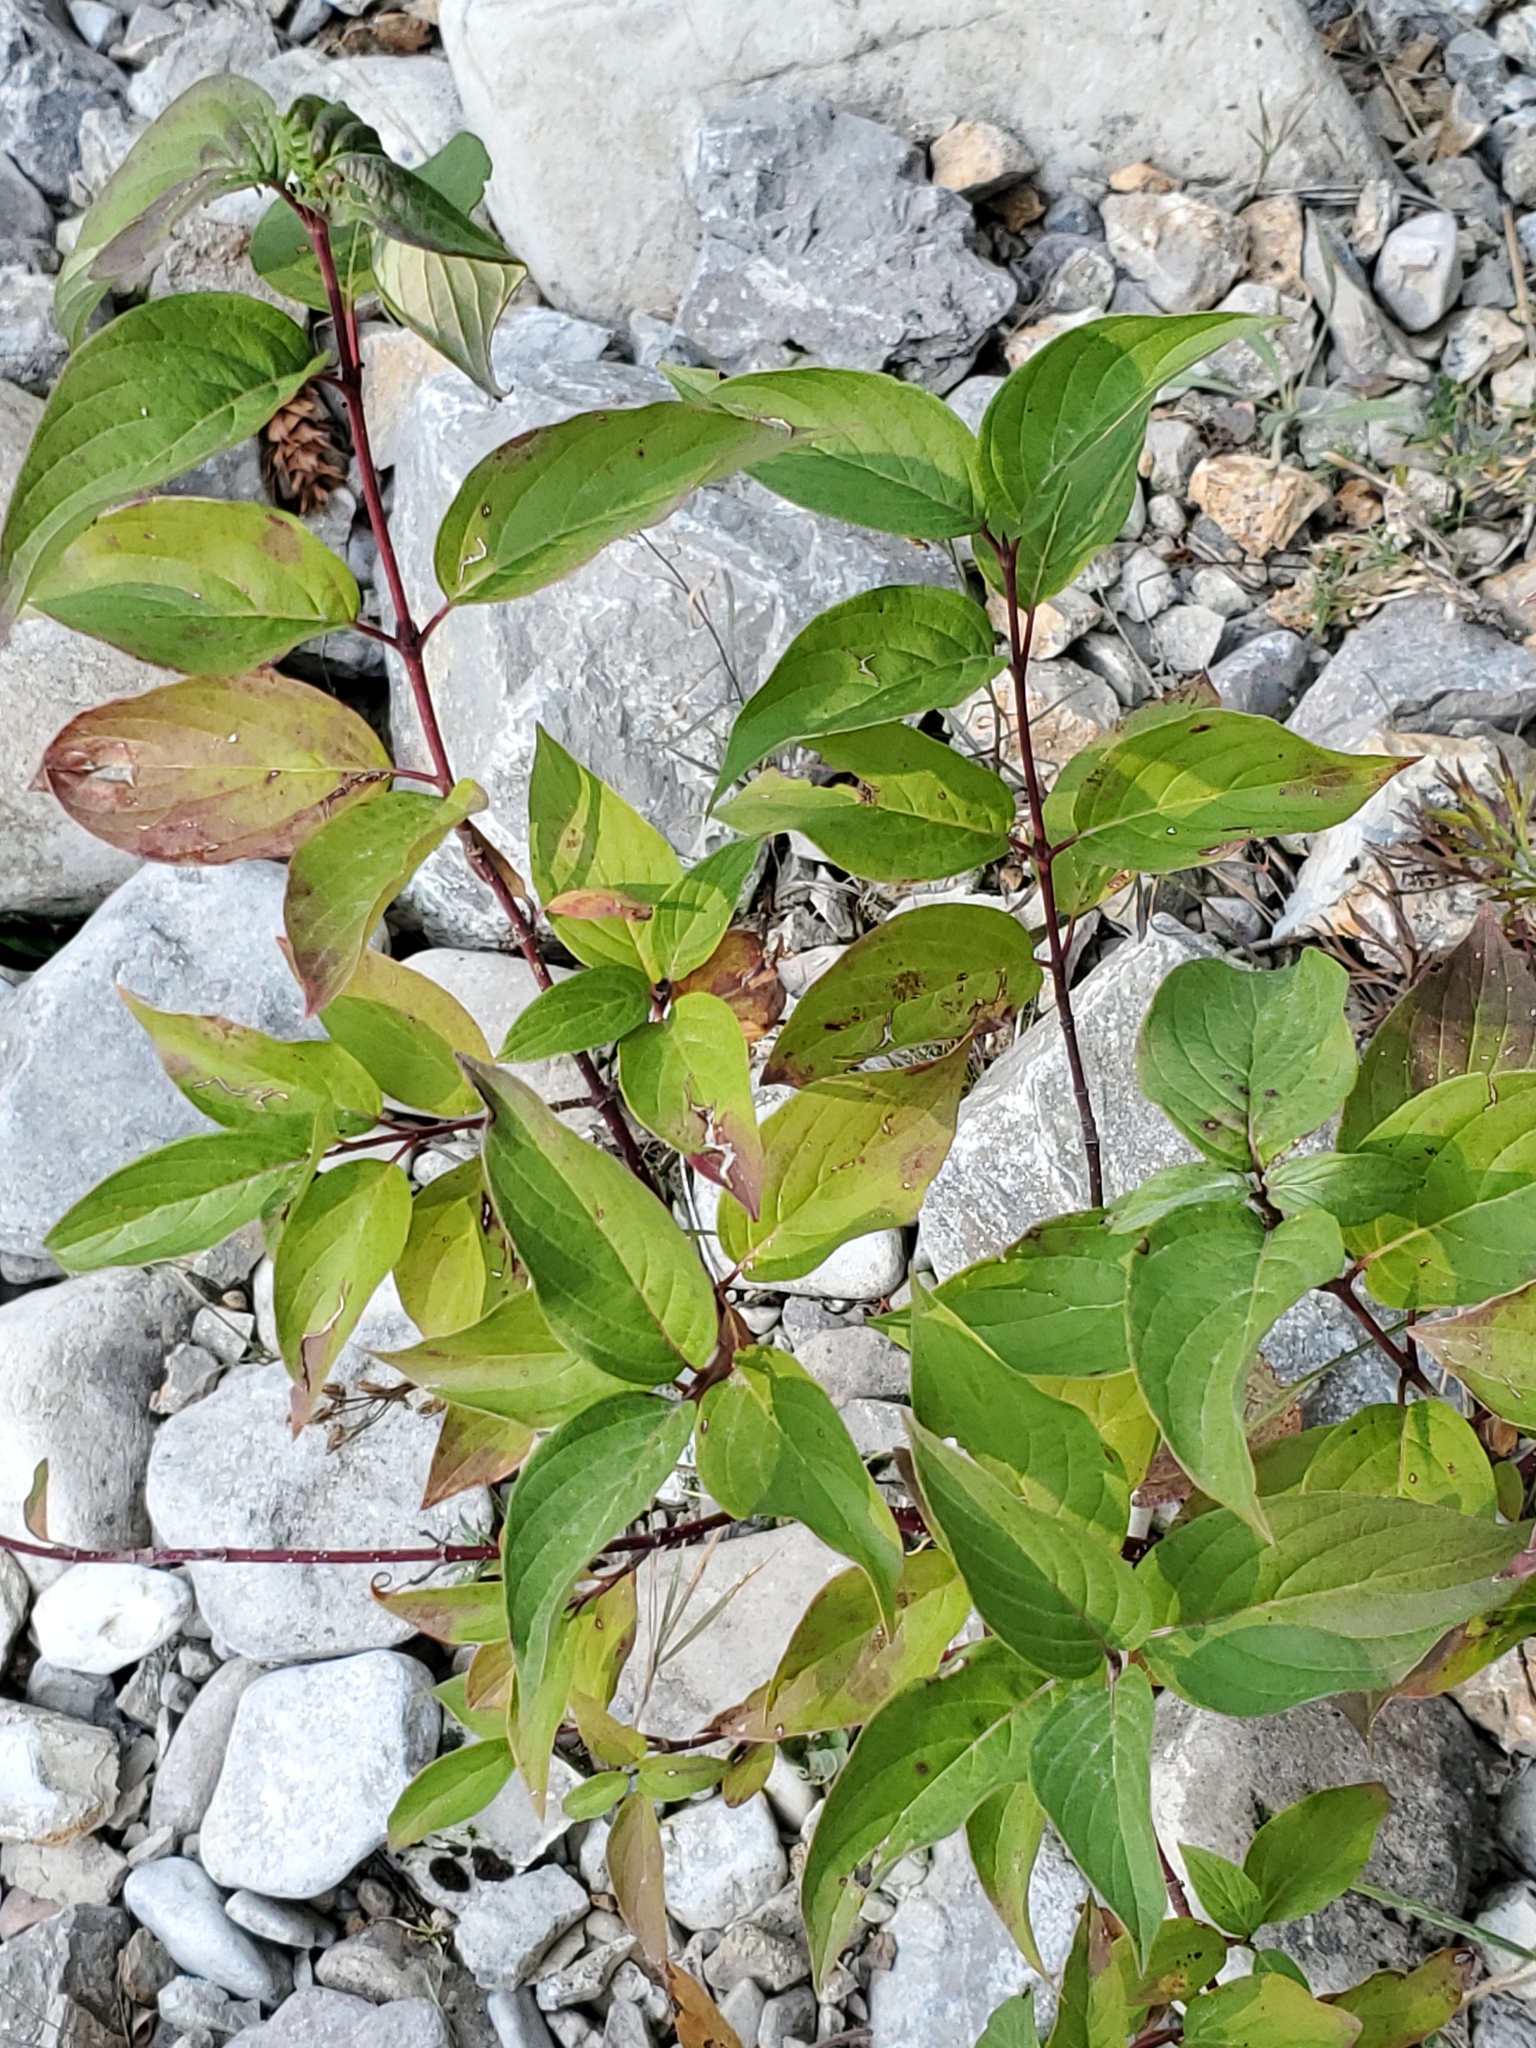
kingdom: Plantae
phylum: Tracheophyta
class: Magnoliopsida
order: Cornales
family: Cornaceae
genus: Cornus
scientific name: Cornus sericea
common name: Red-osier dogwood
